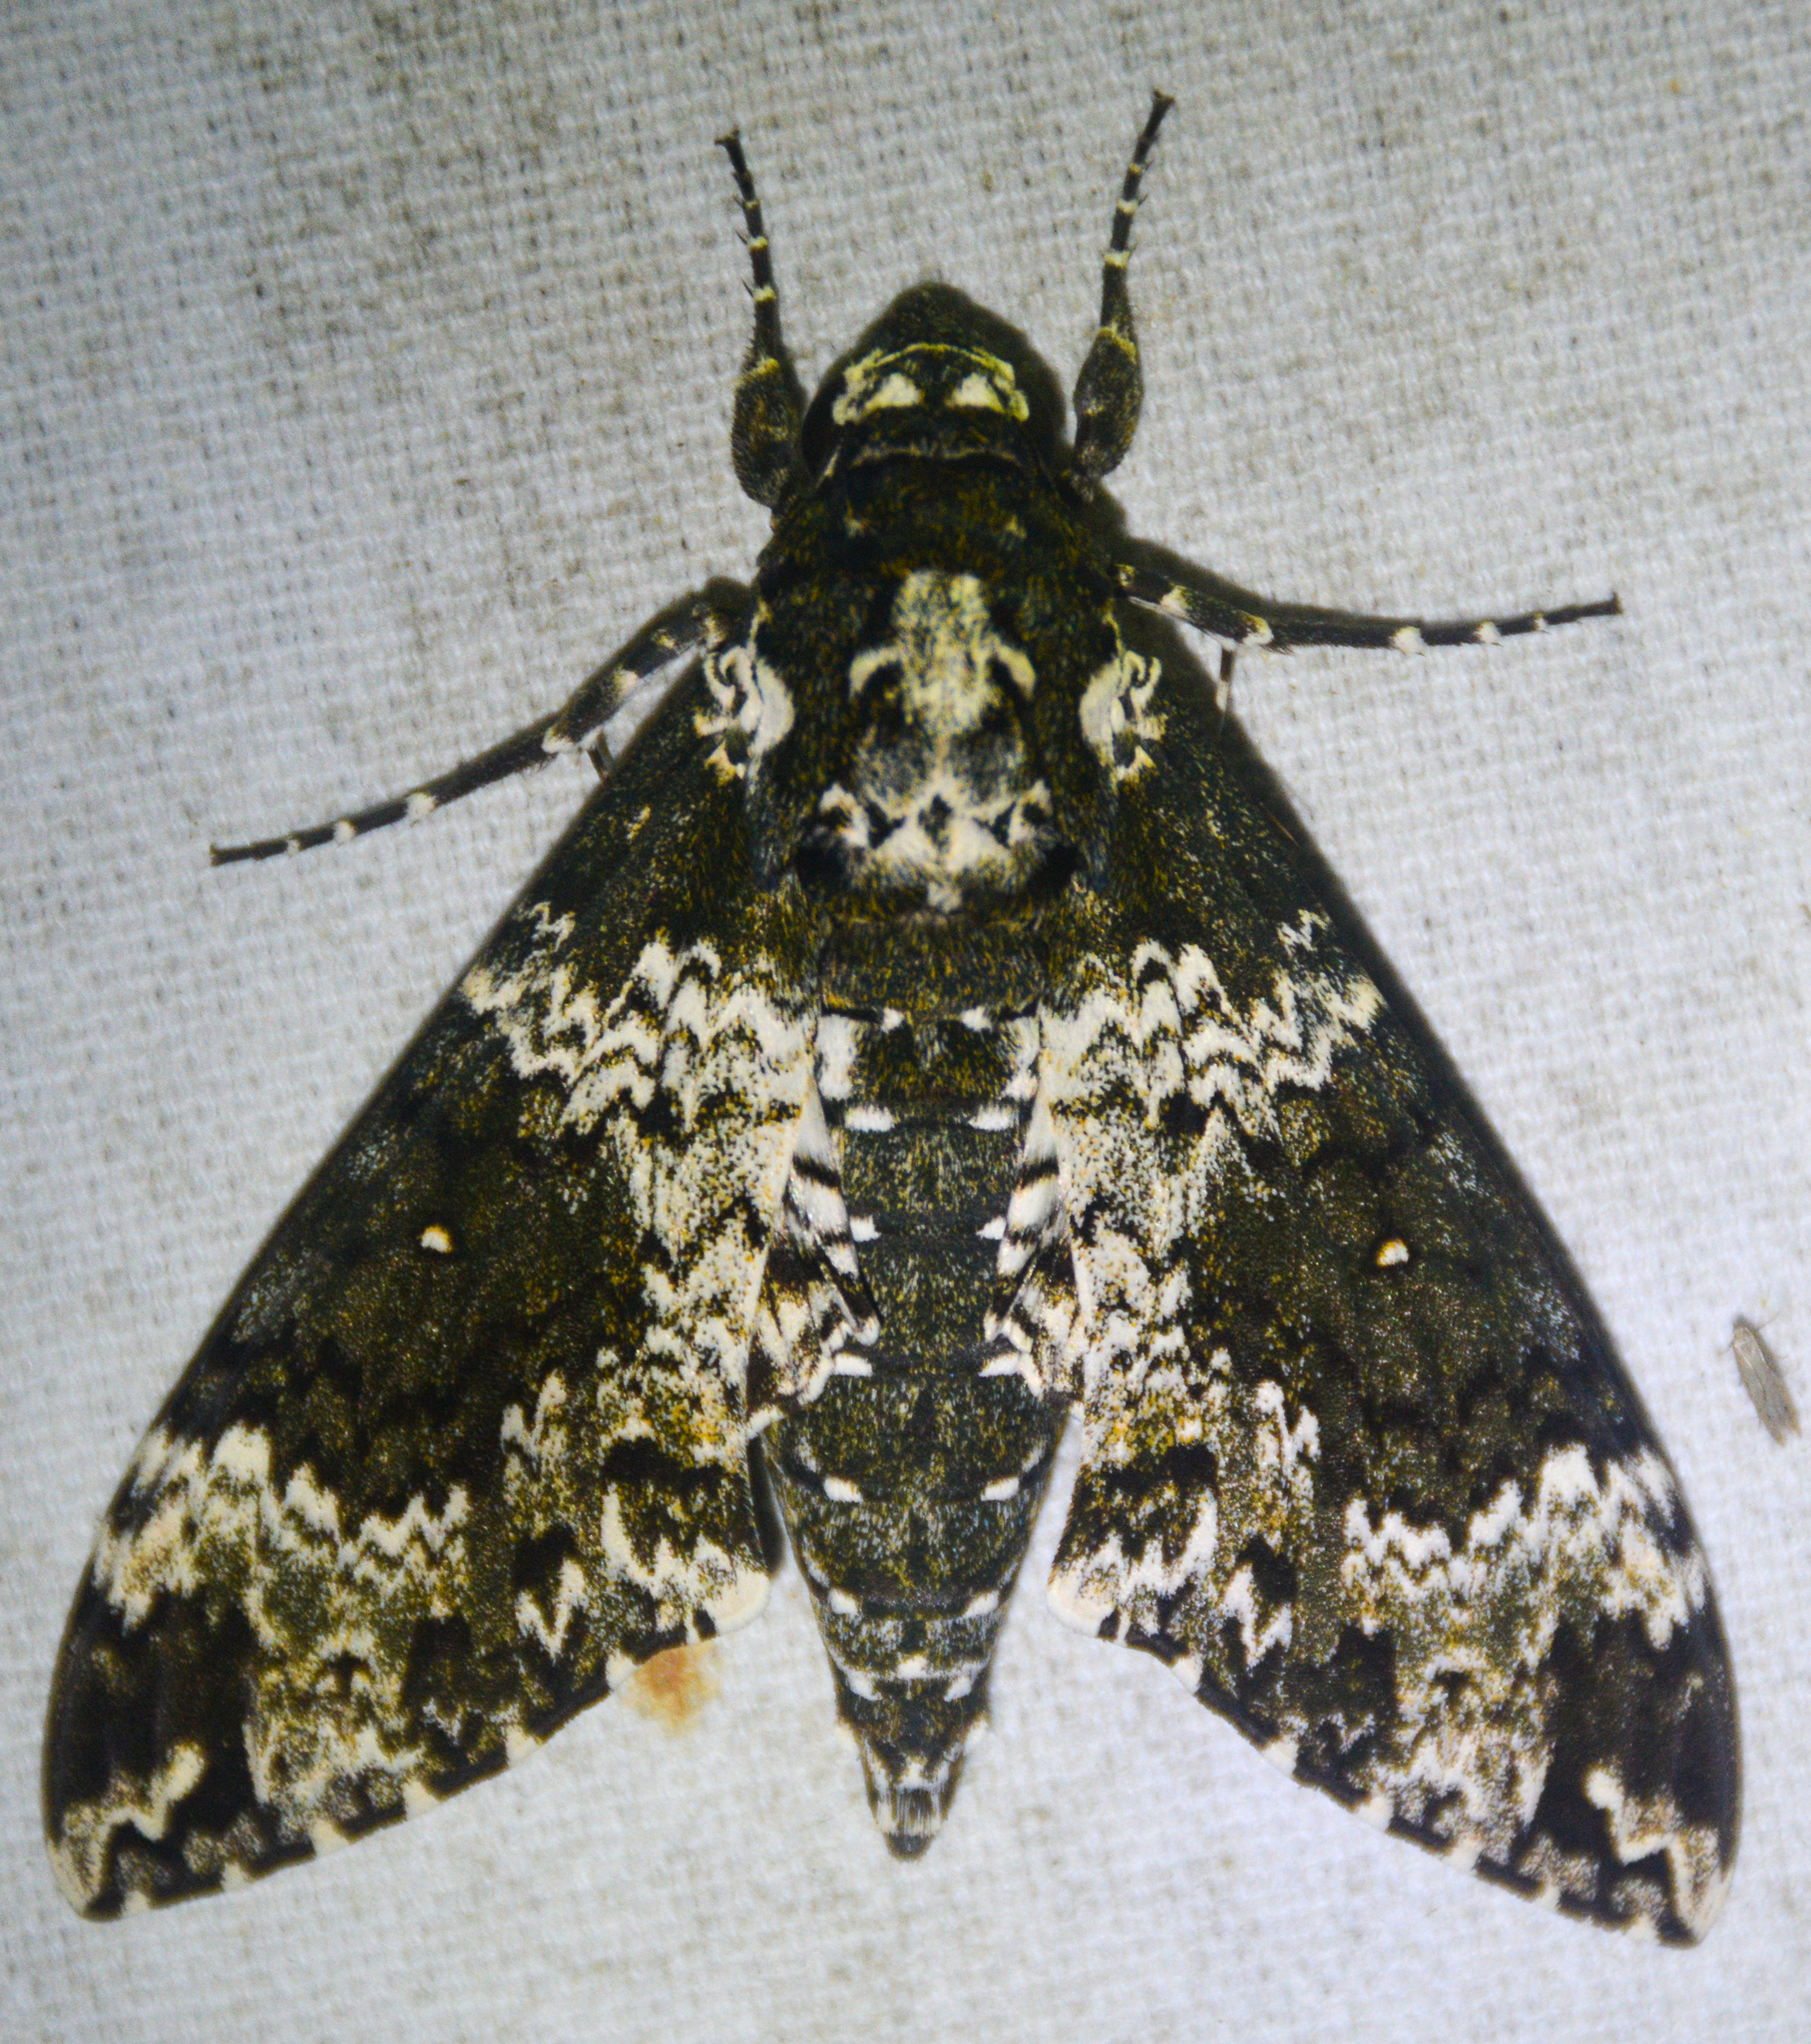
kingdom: Animalia
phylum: Arthropoda
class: Insecta
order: Lepidoptera
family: Sphingidae
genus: Manduca
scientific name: Manduca rustica
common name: Rustic sphinx
